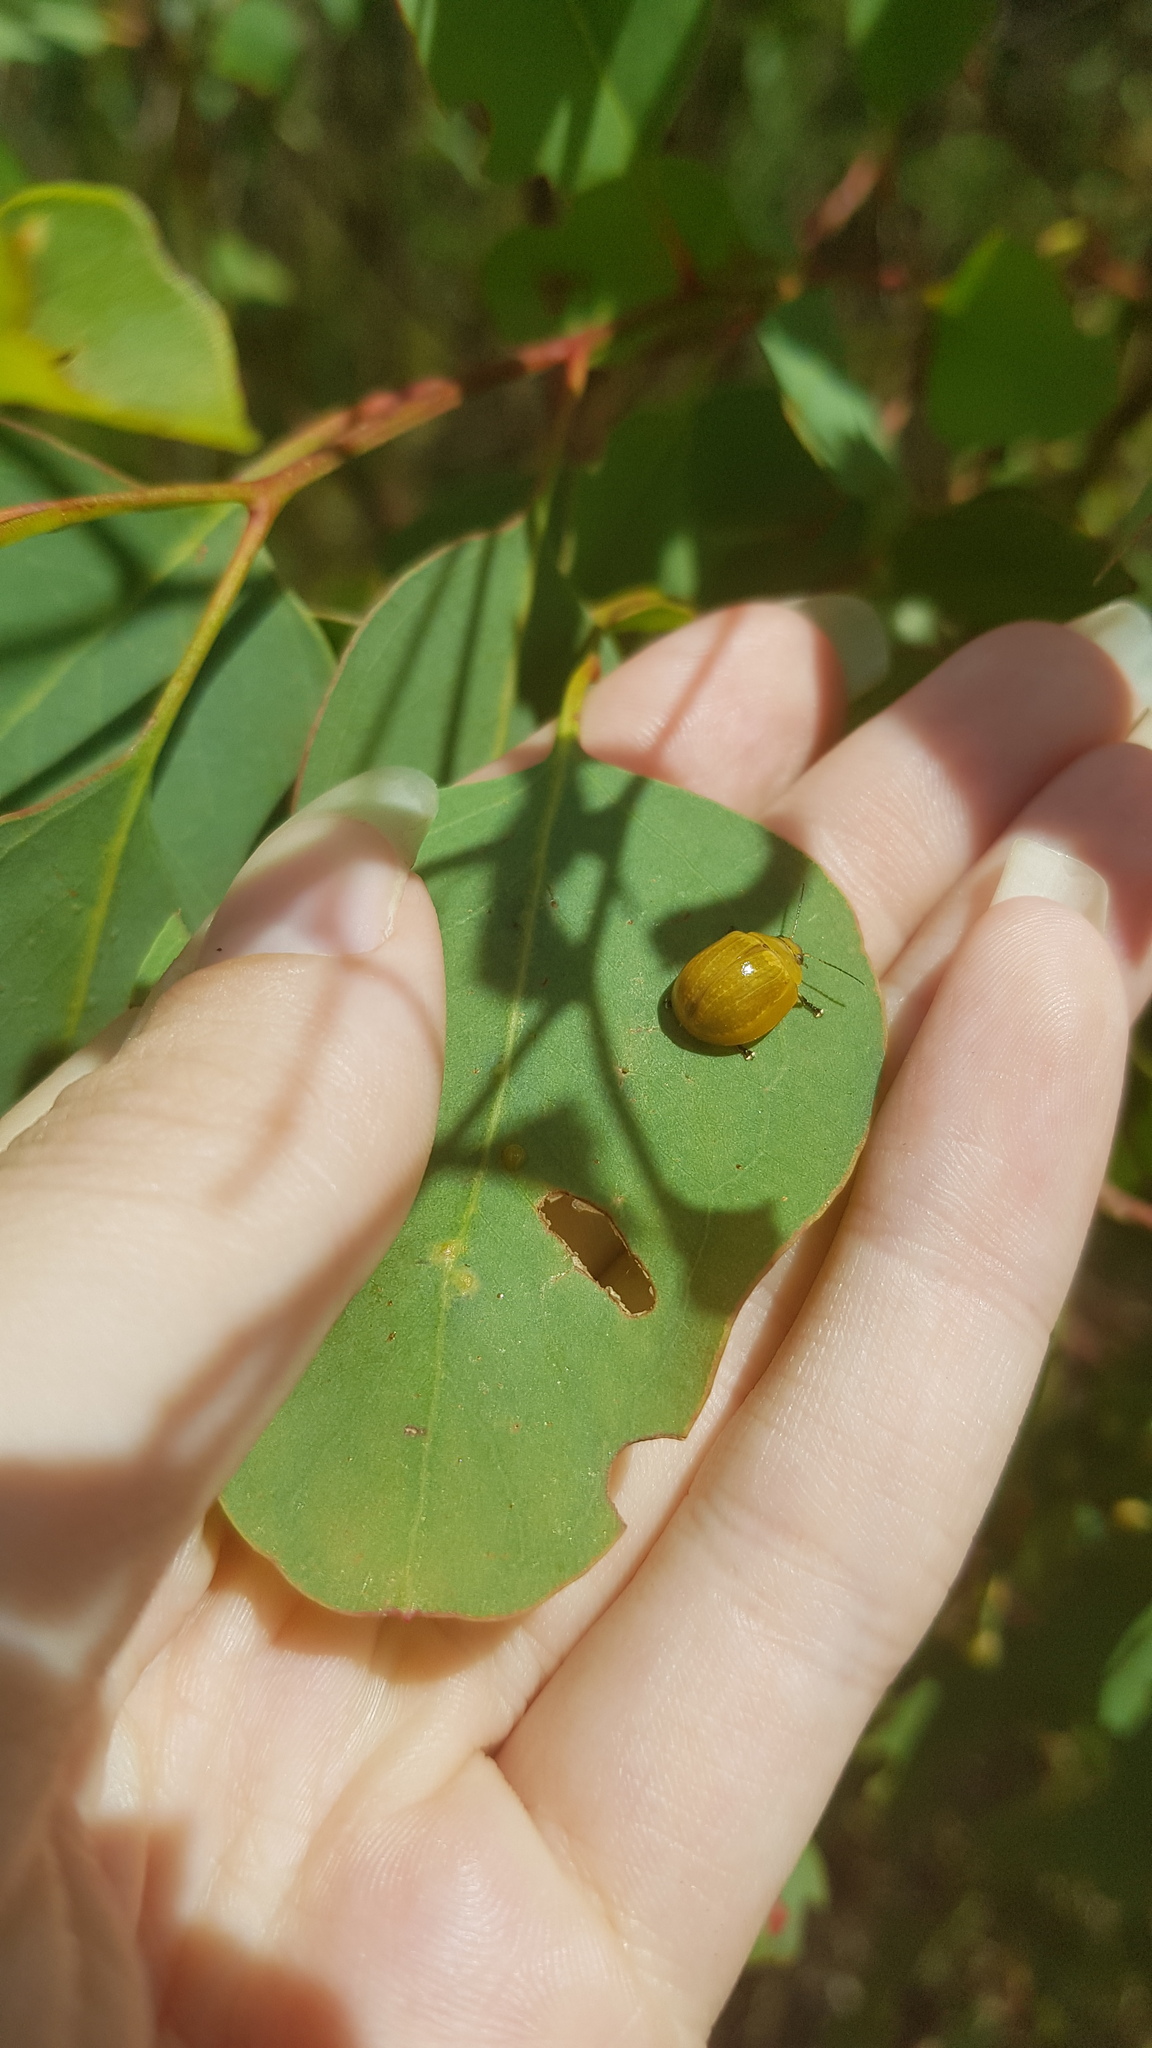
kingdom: Animalia
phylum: Arthropoda
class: Insecta
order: Coleoptera
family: Chrysomelidae
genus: Paropsisterna
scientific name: Paropsisterna cloelia
